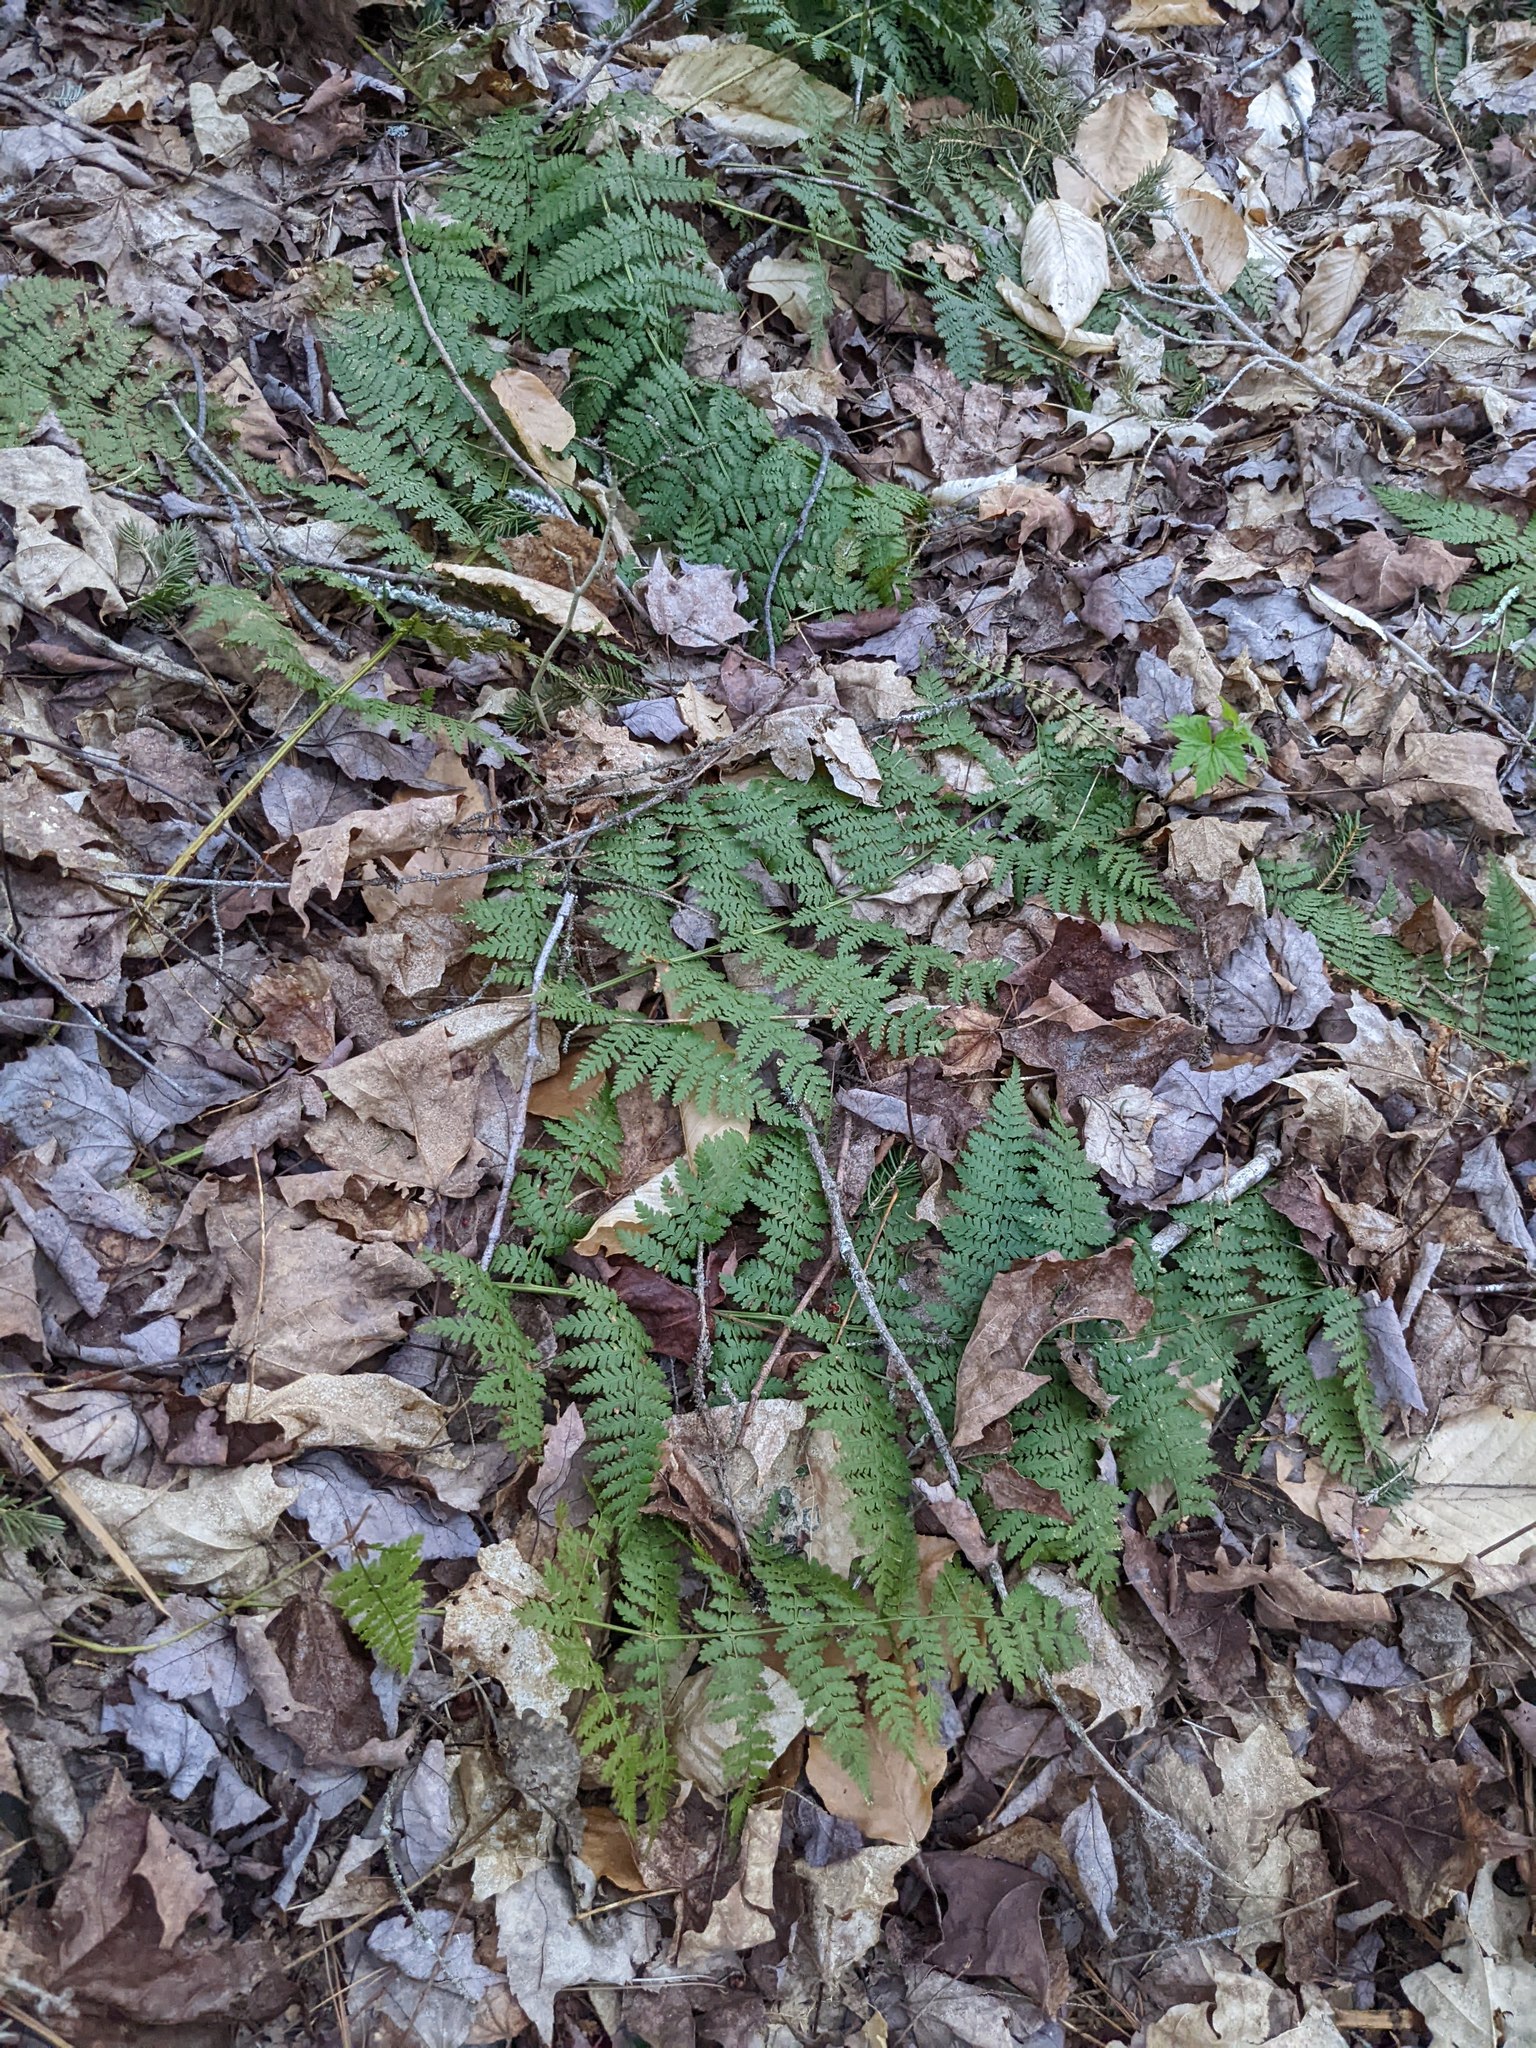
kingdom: Plantae
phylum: Tracheophyta
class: Polypodiopsida
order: Polypodiales
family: Dryopteridaceae
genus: Dryopteris
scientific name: Dryopteris intermedia
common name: Evergreen wood fern
